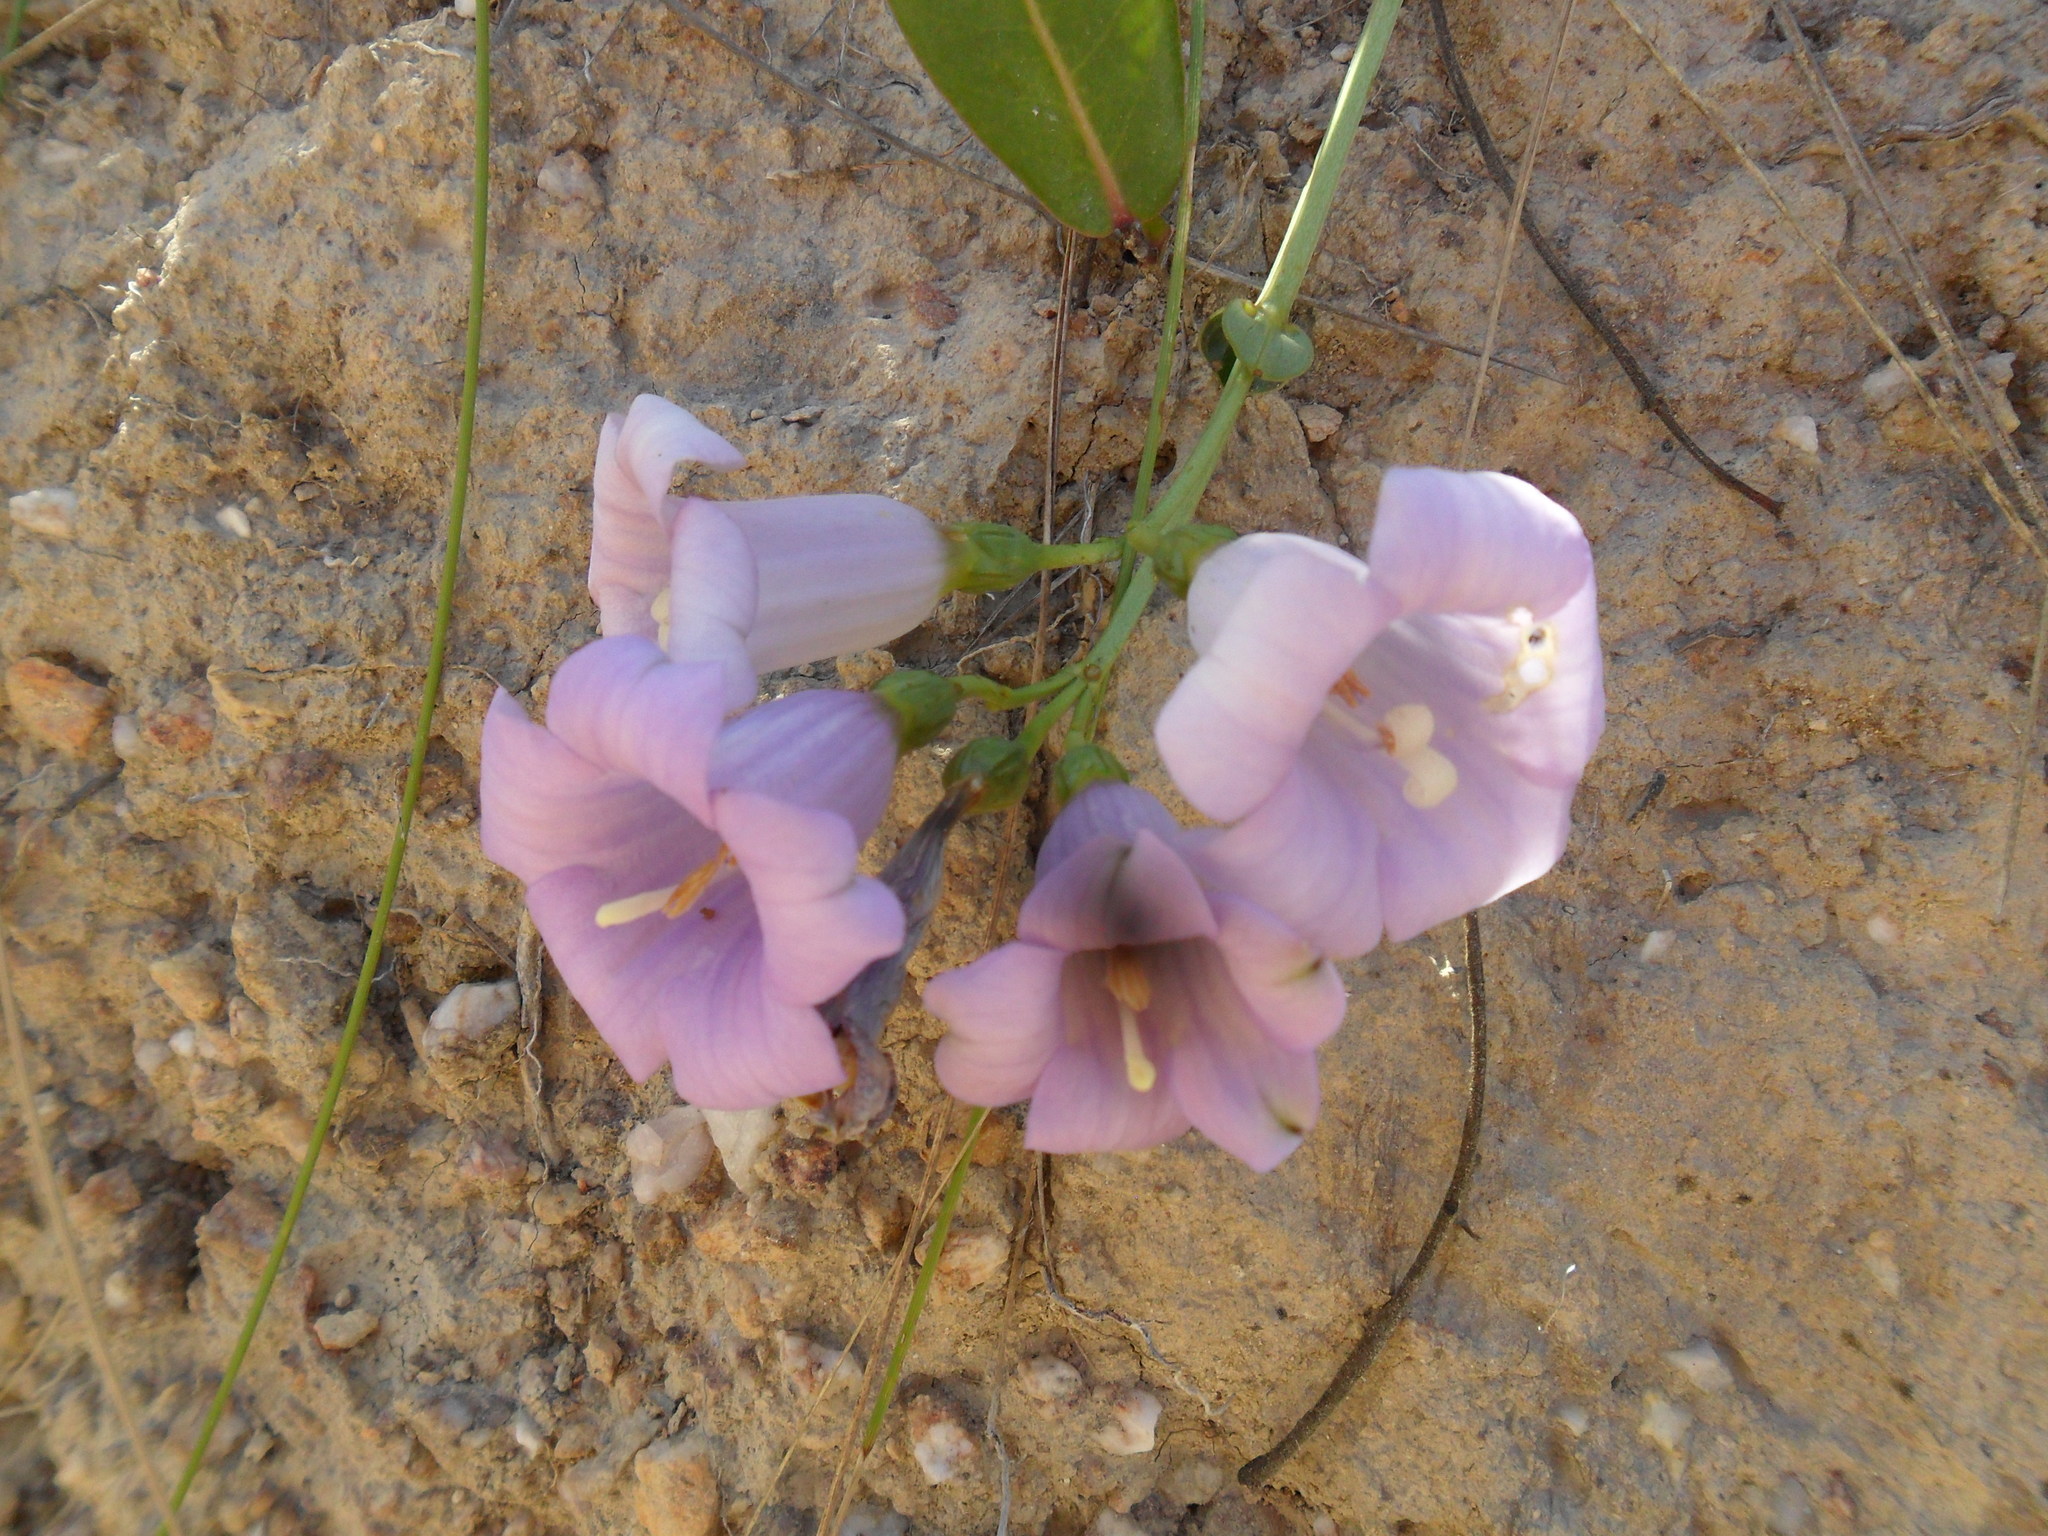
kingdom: Plantae
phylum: Tracheophyta
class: Magnoliopsida
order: Gentianales
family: Gentianaceae
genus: Calolisianthus
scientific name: Calolisianthus speciosus
